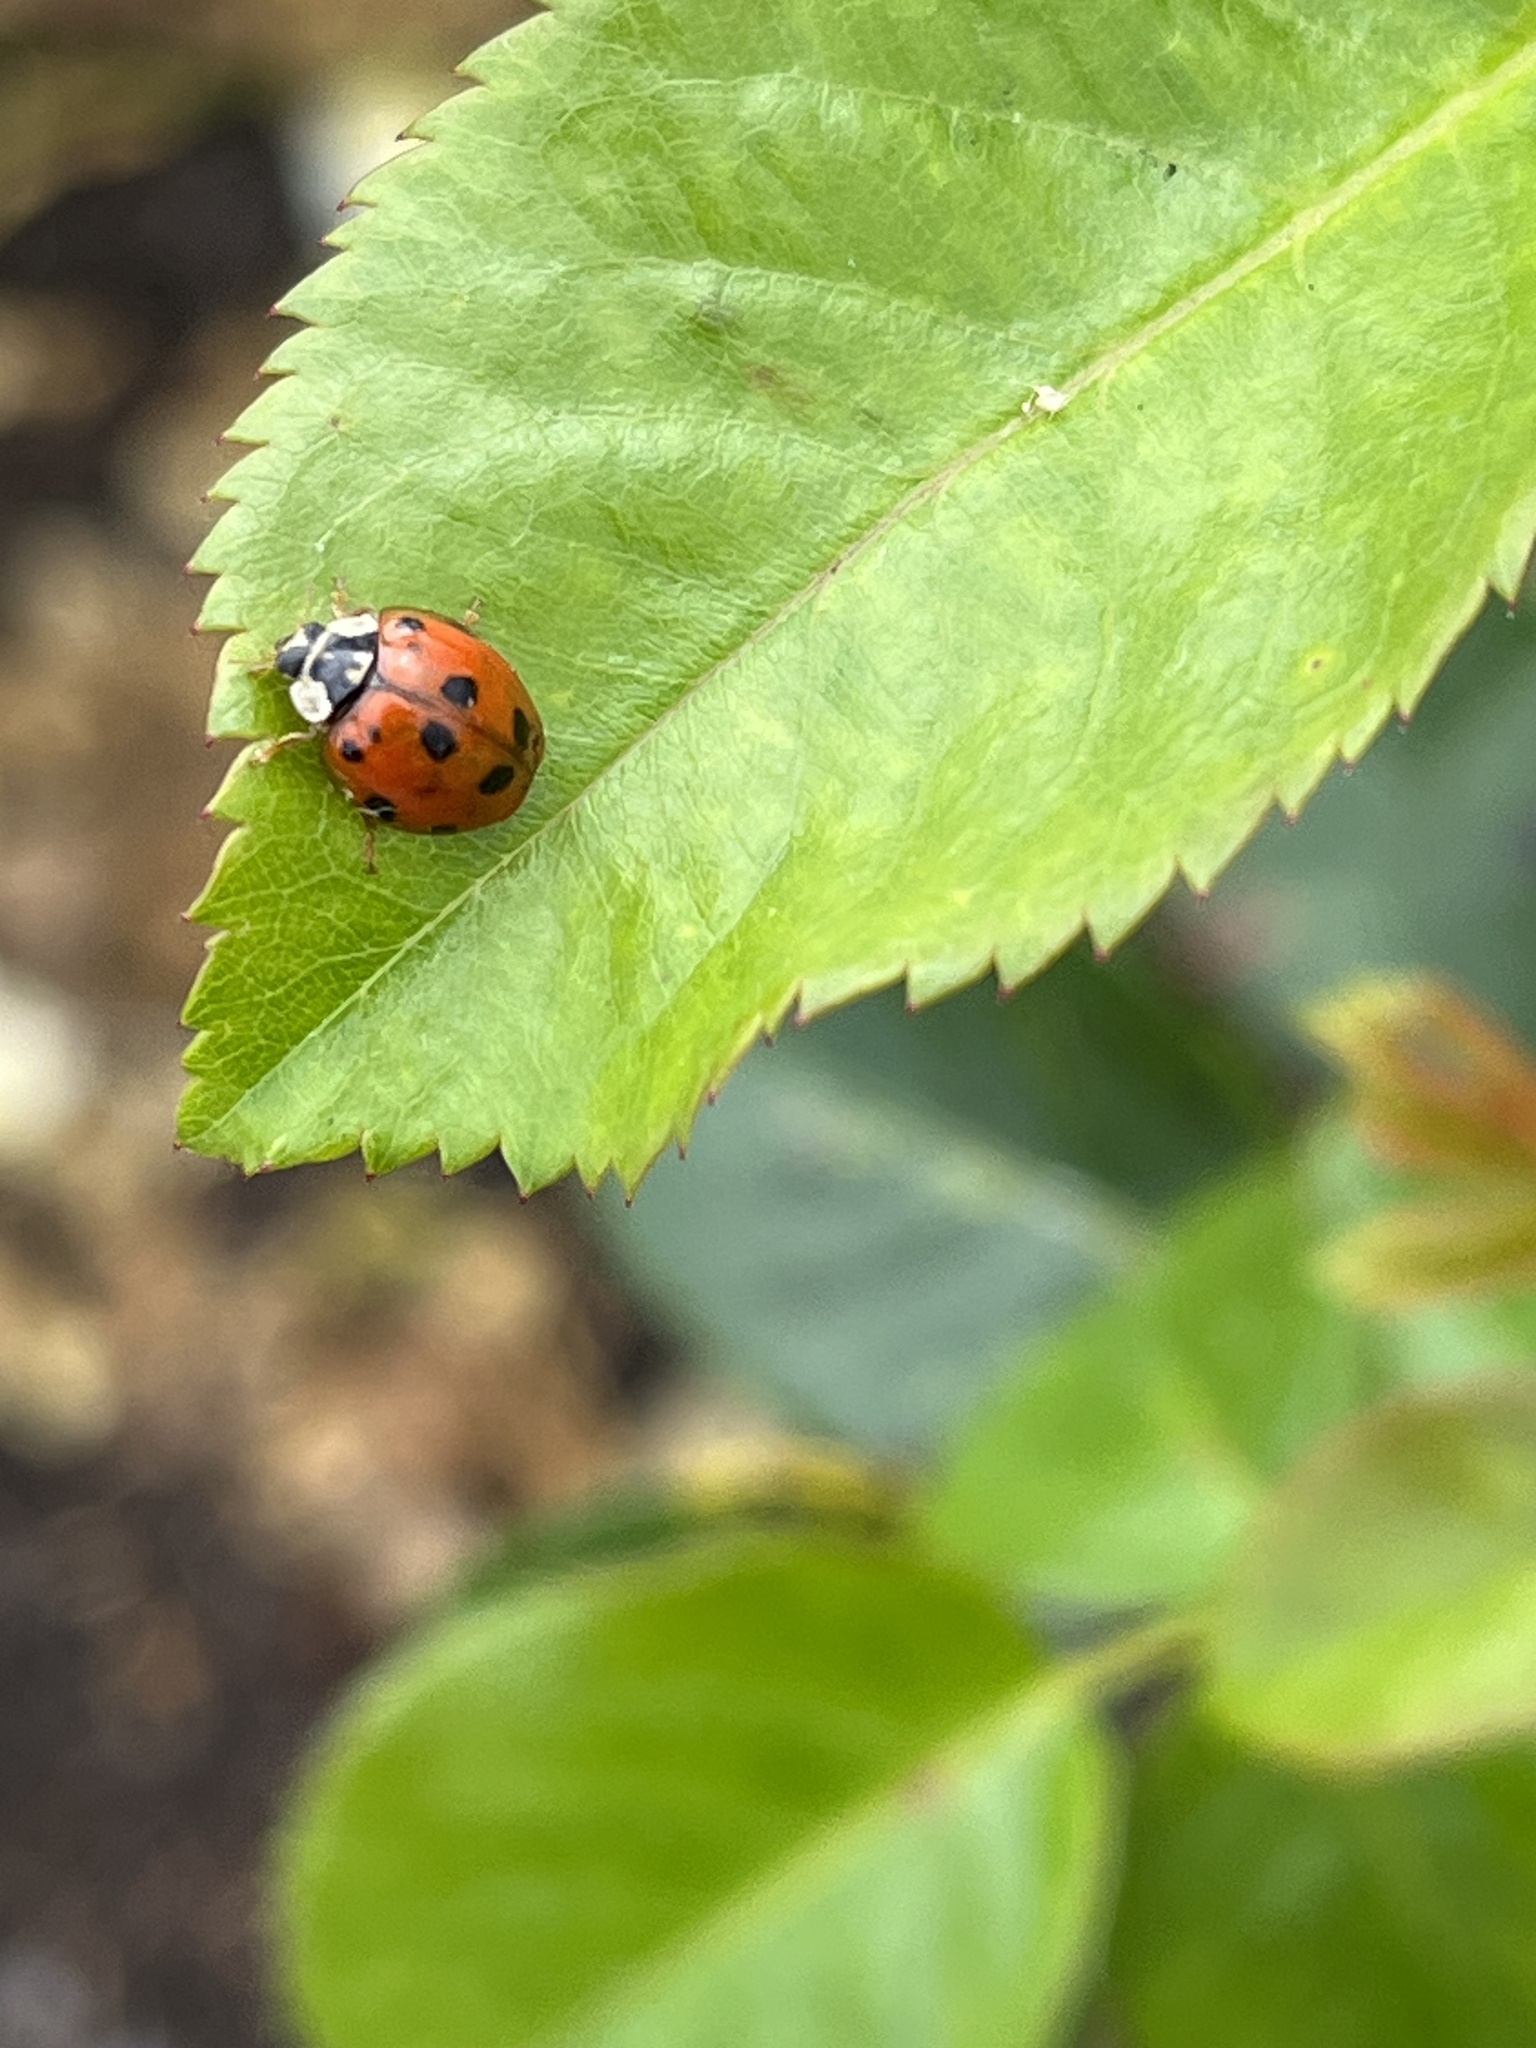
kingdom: Animalia
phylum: Arthropoda
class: Insecta
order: Coleoptera
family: Coccinellidae
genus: Harmonia
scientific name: Harmonia axyridis
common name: Harlequin ladybird
